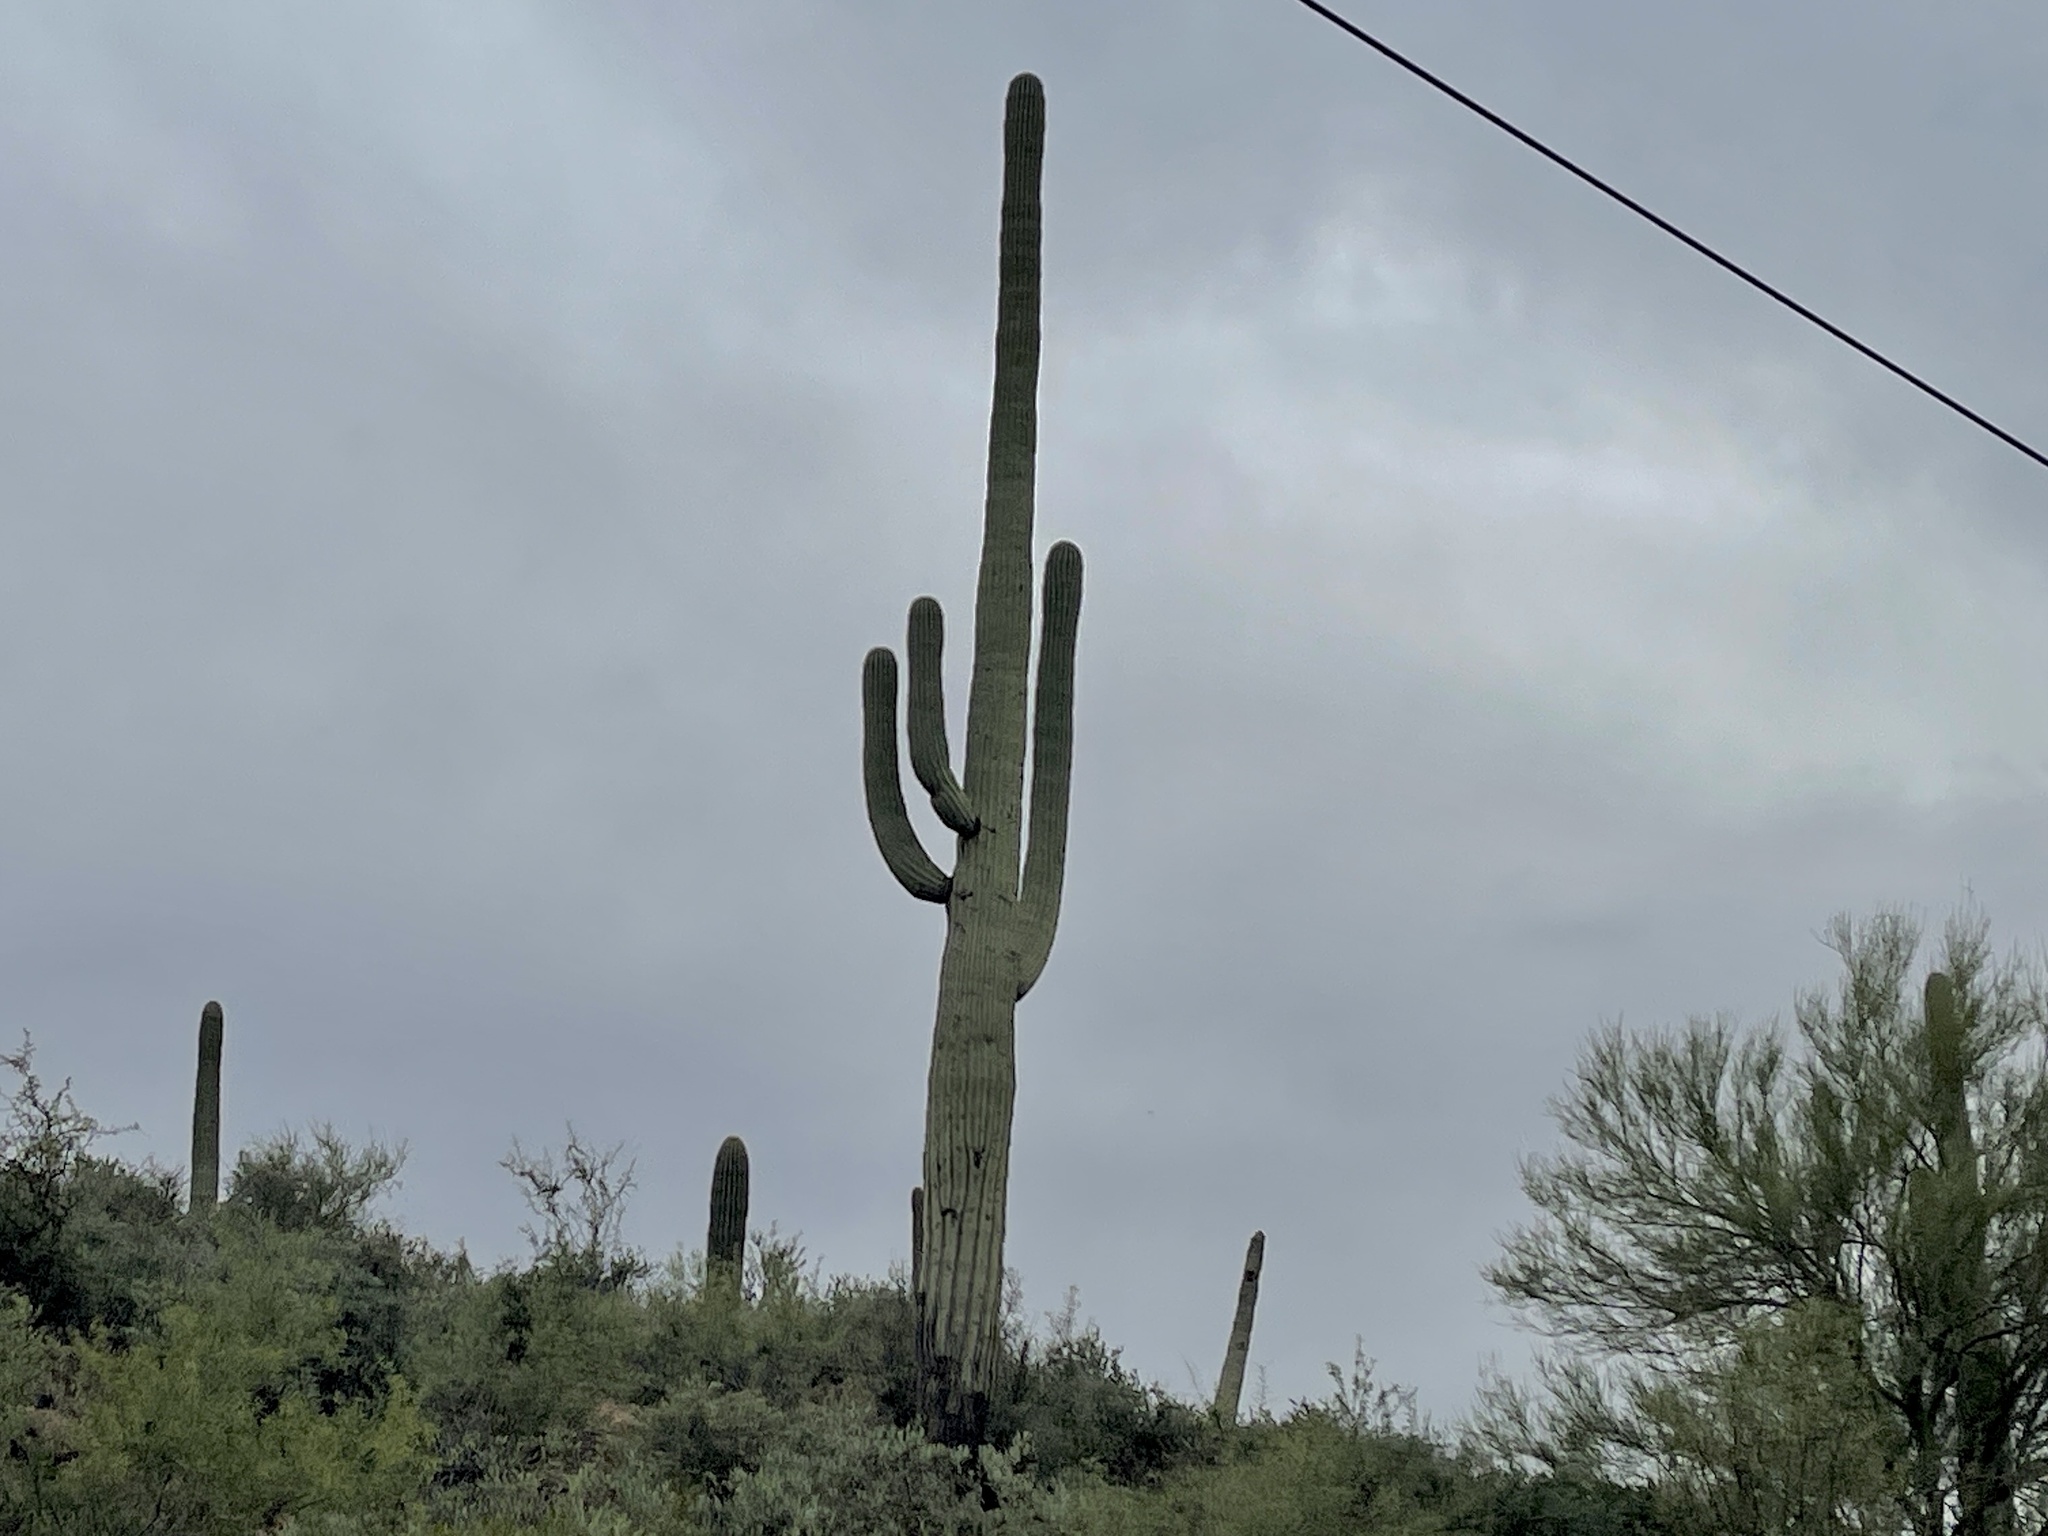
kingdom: Plantae
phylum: Tracheophyta
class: Magnoliopsida
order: Caryophyllales
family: Cactaceae
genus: Carnegiea
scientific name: Carnegiea gigantea
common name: Saguaro
